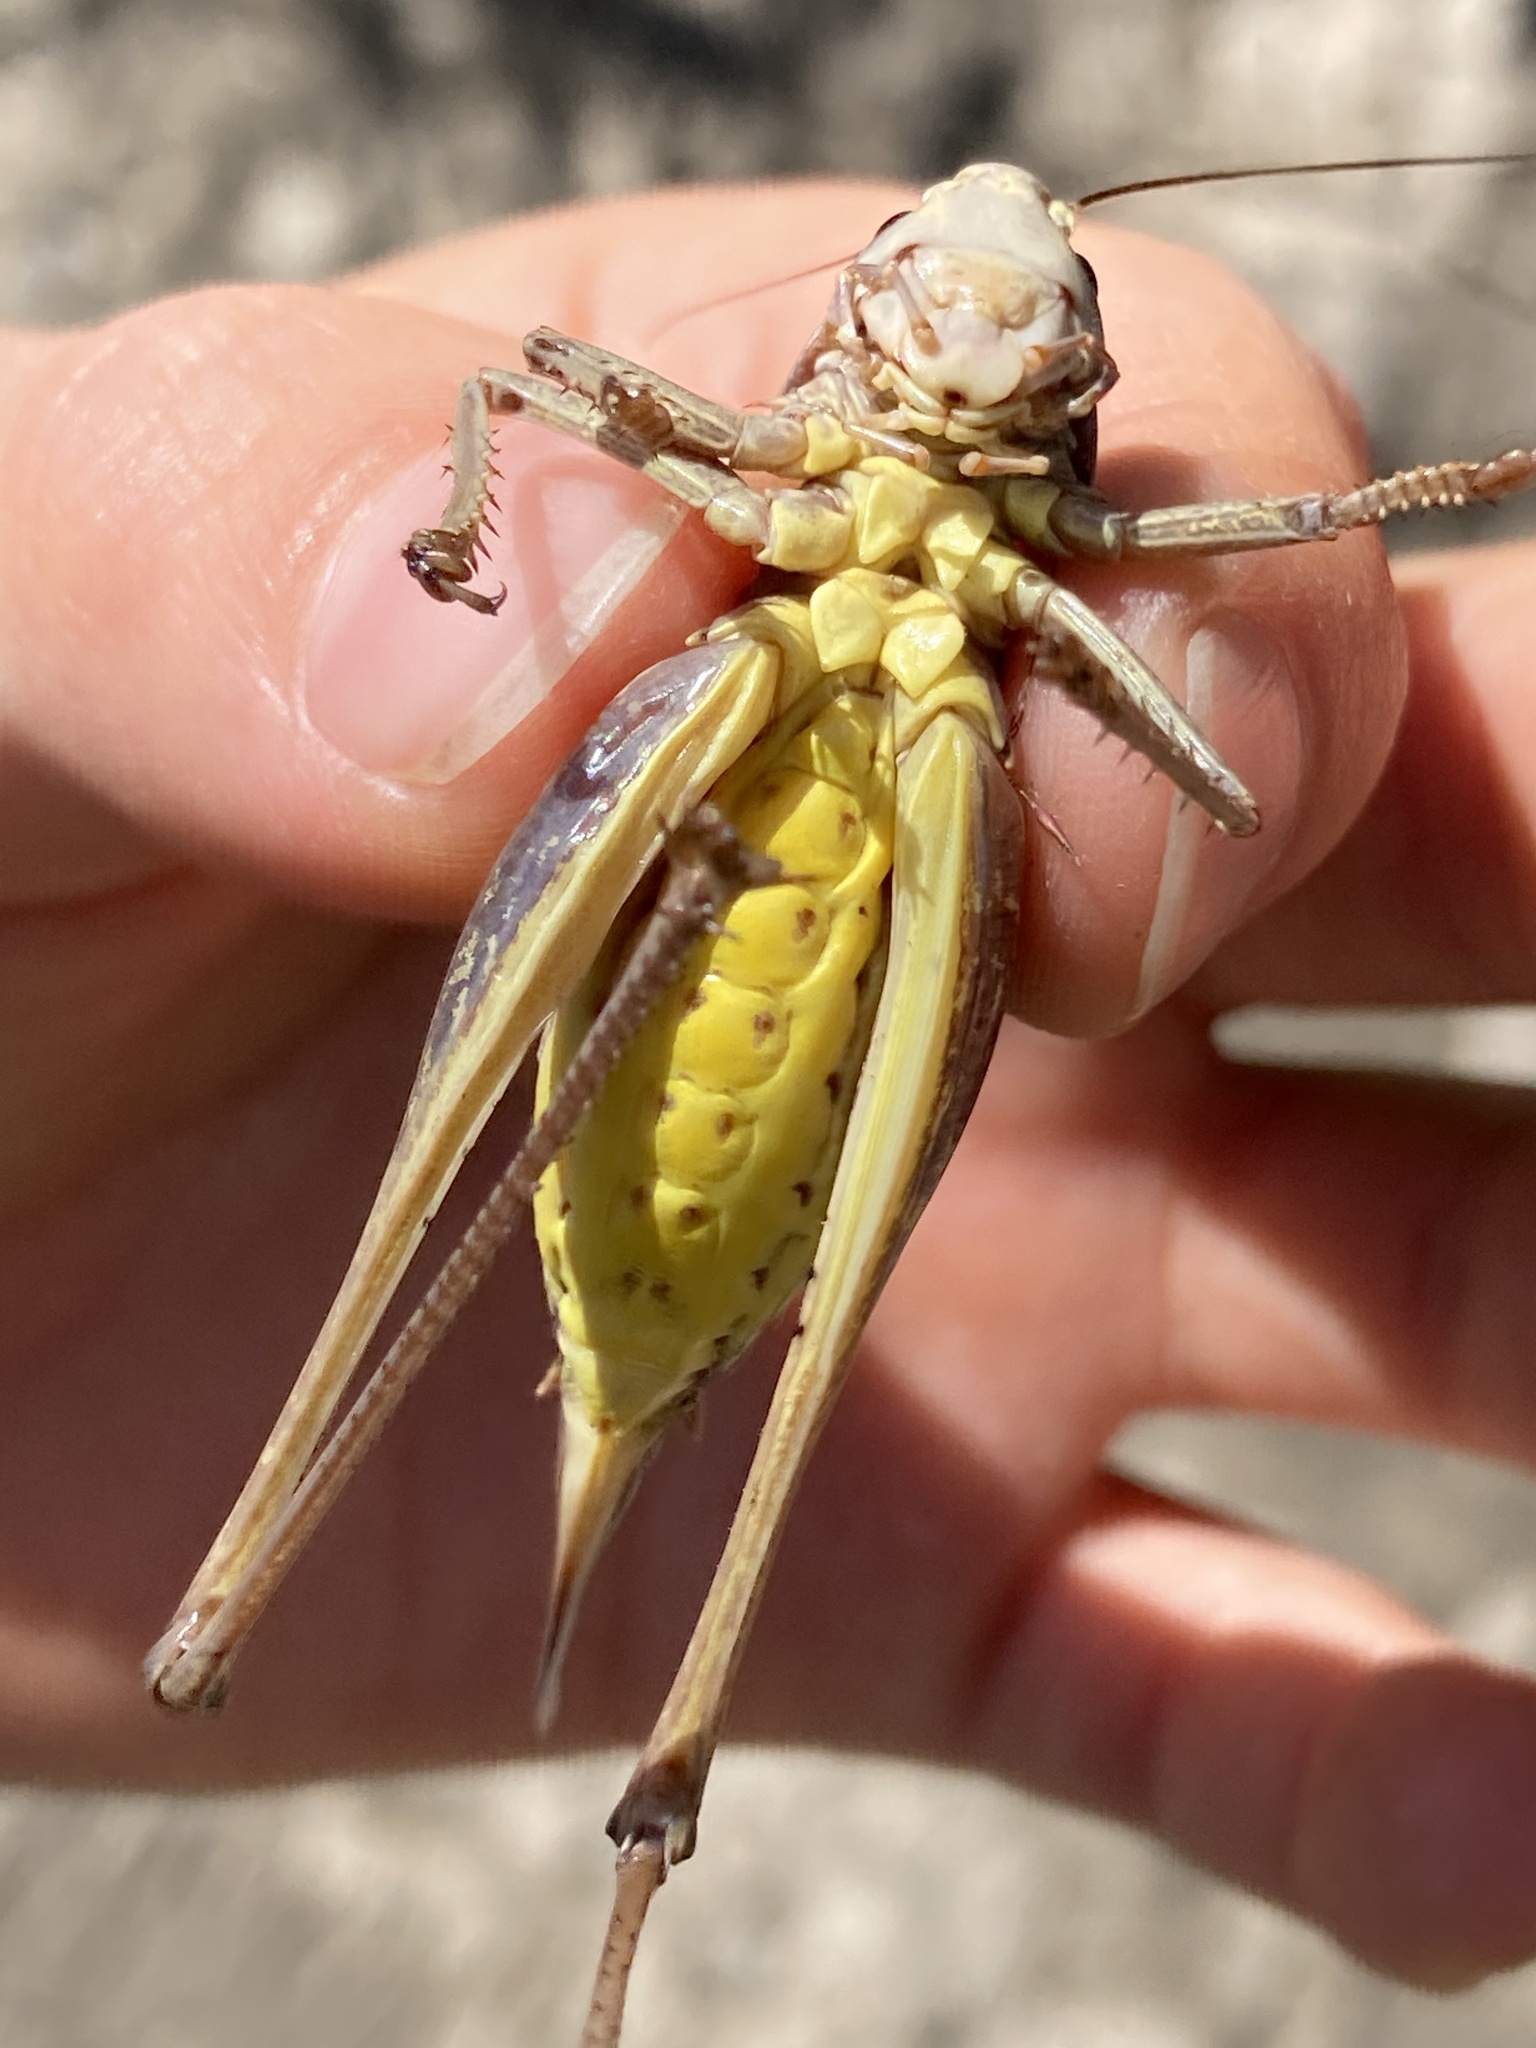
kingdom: Animalia
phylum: Arthropoda
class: Insecta
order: Orthoptera
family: Tettigoniidae
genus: Decticus
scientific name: Decticus verrucivorus
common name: Wart-biter
